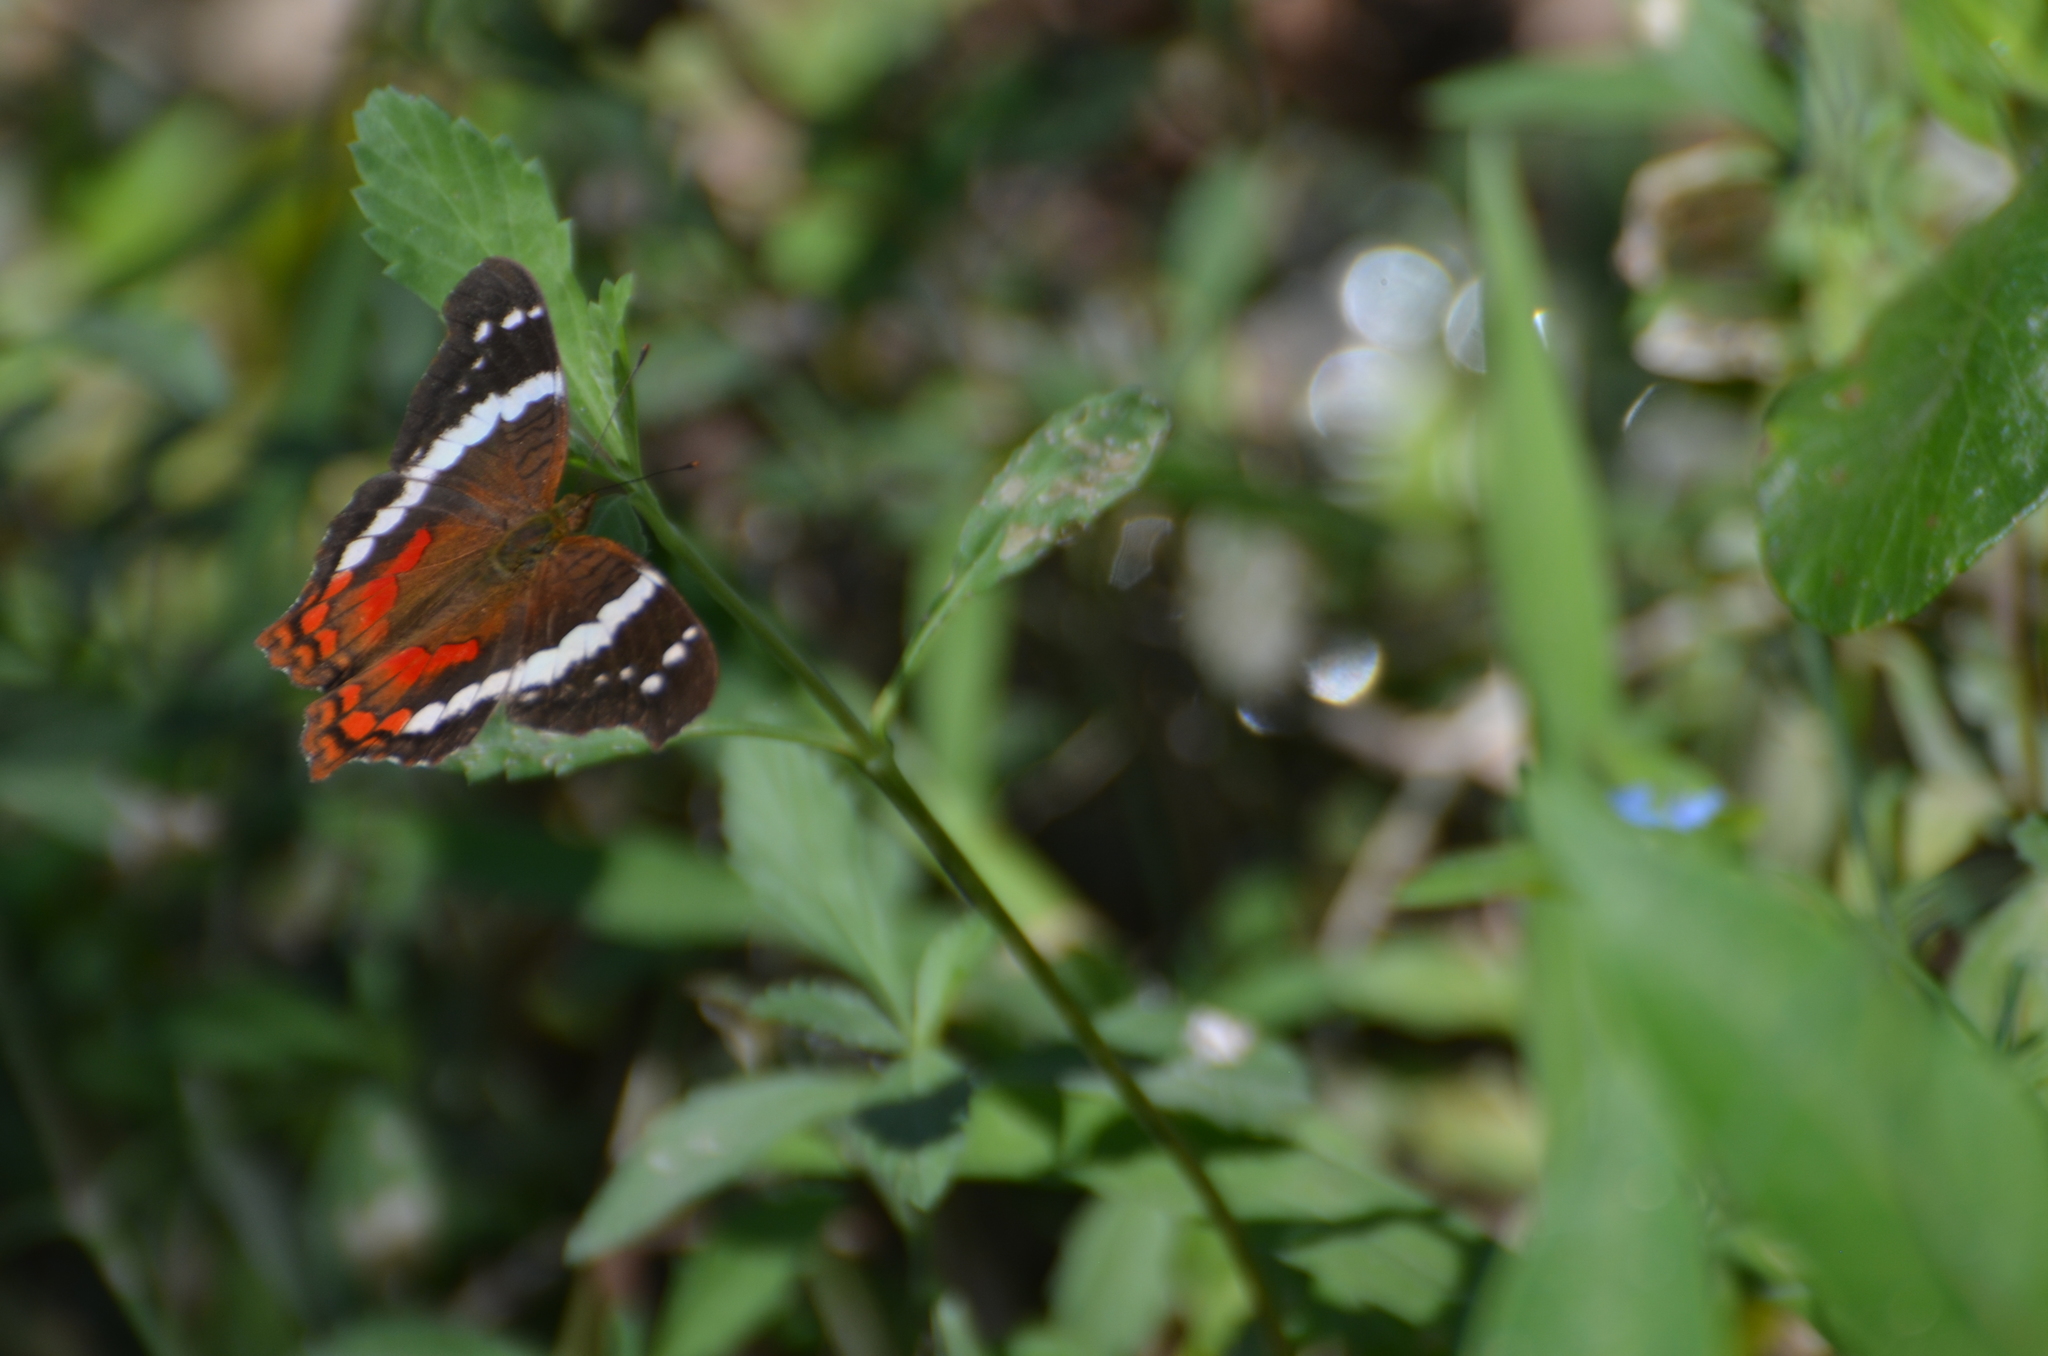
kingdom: Animalia
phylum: Arthropoda
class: Insecta
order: Lepidoptera
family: Nymphalidae
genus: Anartia
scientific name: Anartia fatima
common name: Banded peacock
